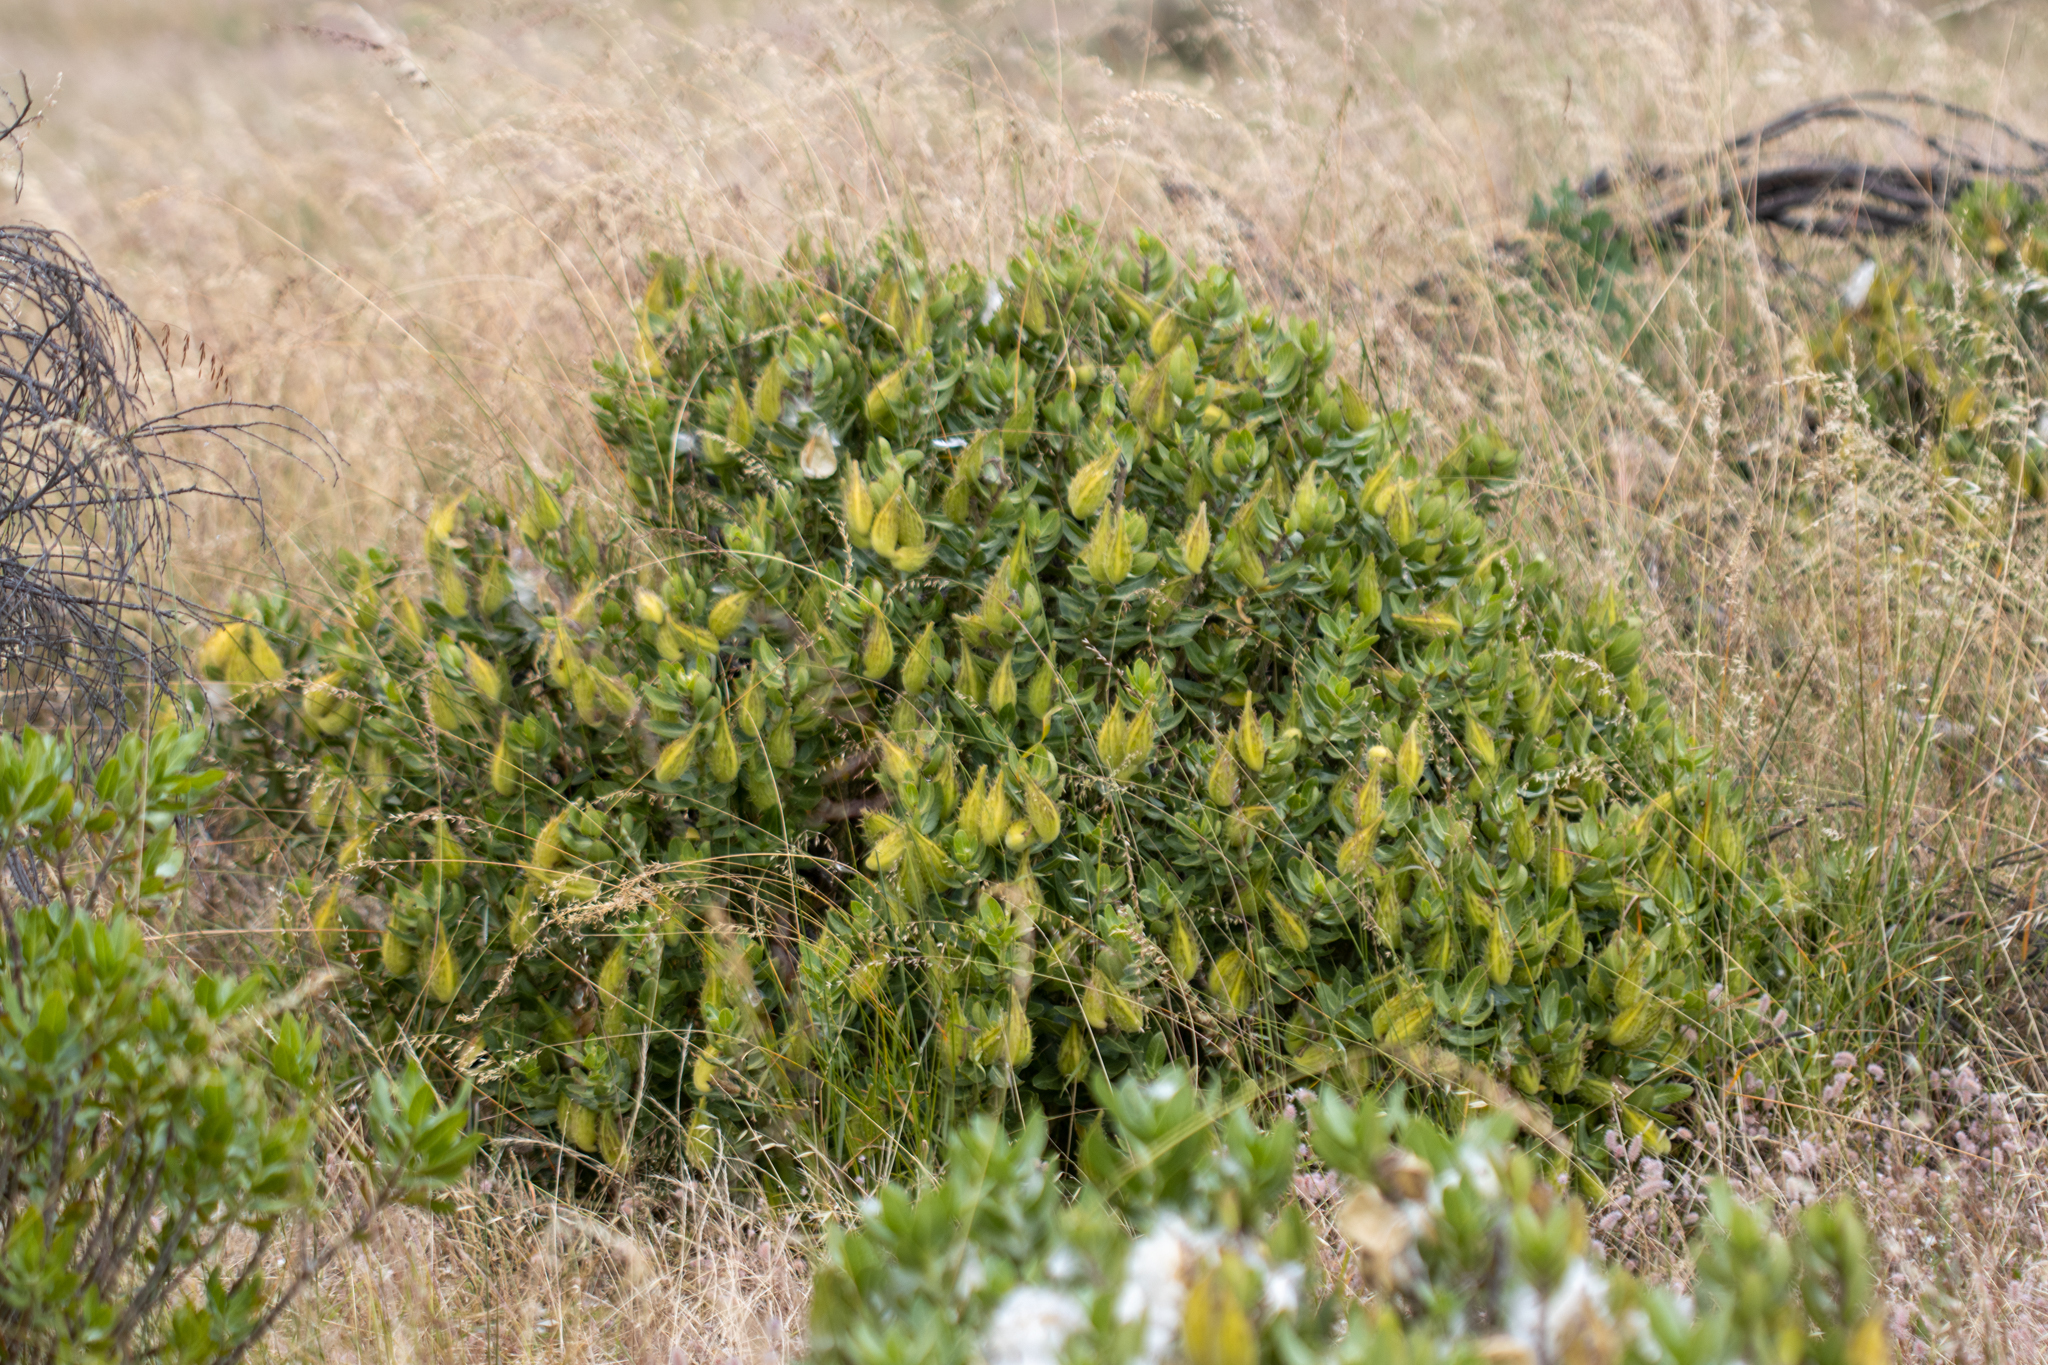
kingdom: Plantae
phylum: Tracheophyta
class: Magnoliopsida
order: Gentianales
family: Apocynaceae
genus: Gomphocarpus
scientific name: Gomphocarpus cancellatus
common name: Wild cotton
